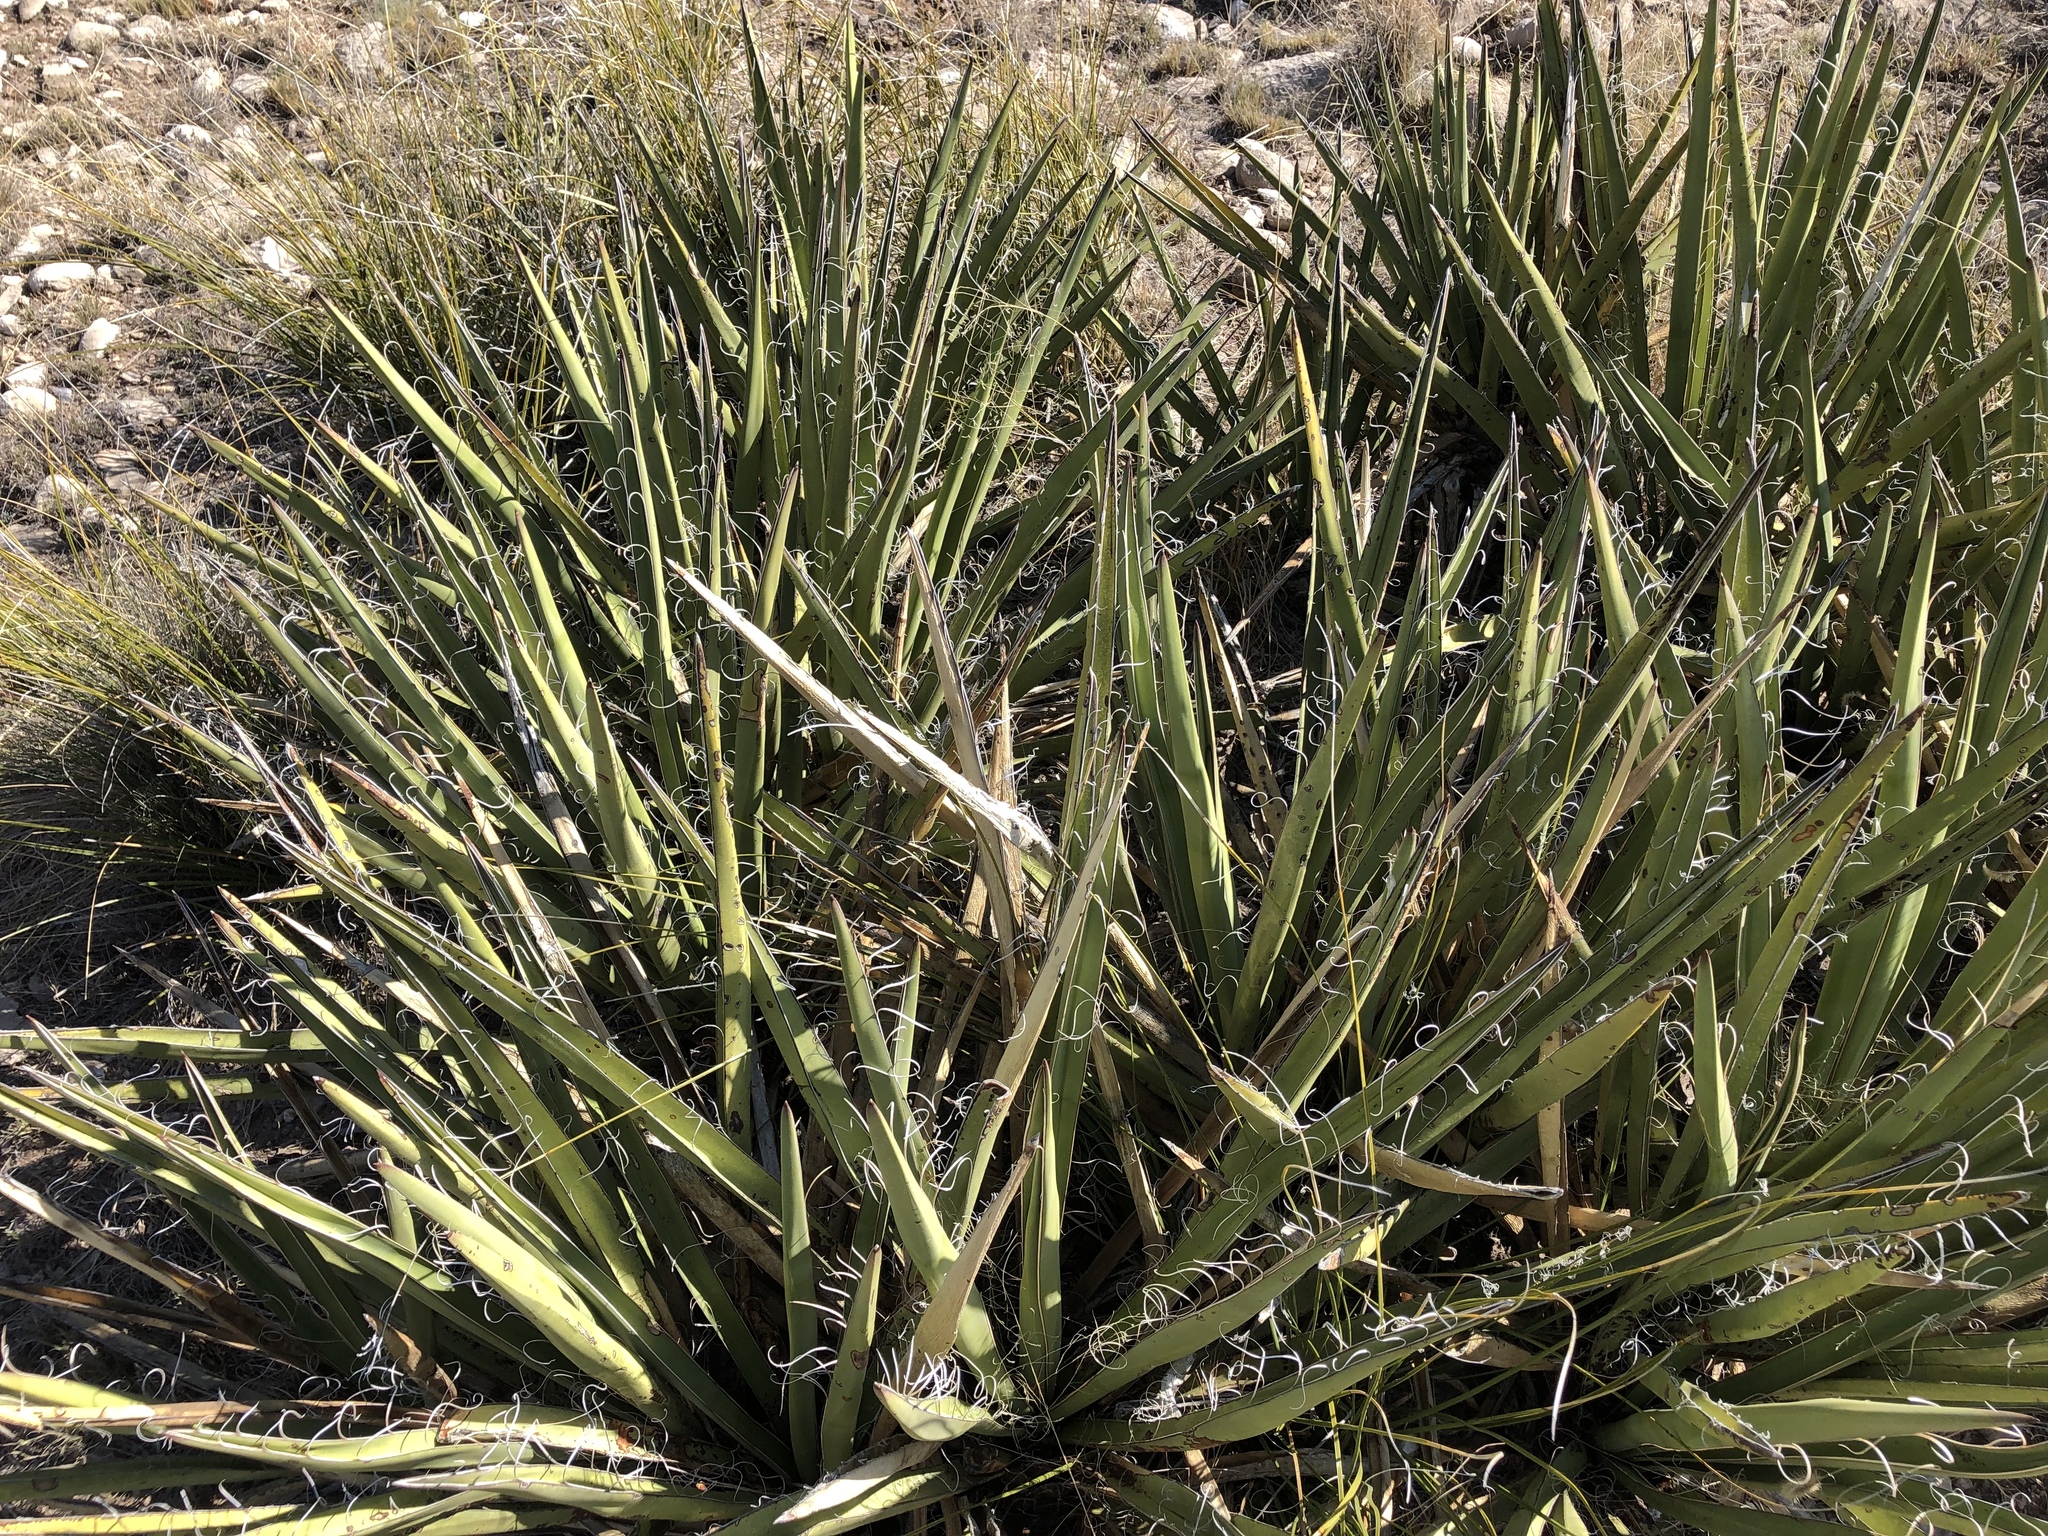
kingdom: Plantae
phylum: Tracheophyta
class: Liliopsida
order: Asparagales
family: Asparagaceae
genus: Yucca
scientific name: Yucca baccata
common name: Banana yucca
